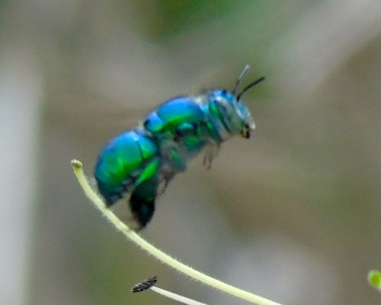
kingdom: Animalia
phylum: Arthropoda
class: Insecta
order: Hymenoptera
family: Apidae
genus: Euglossa
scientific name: Euglossa
